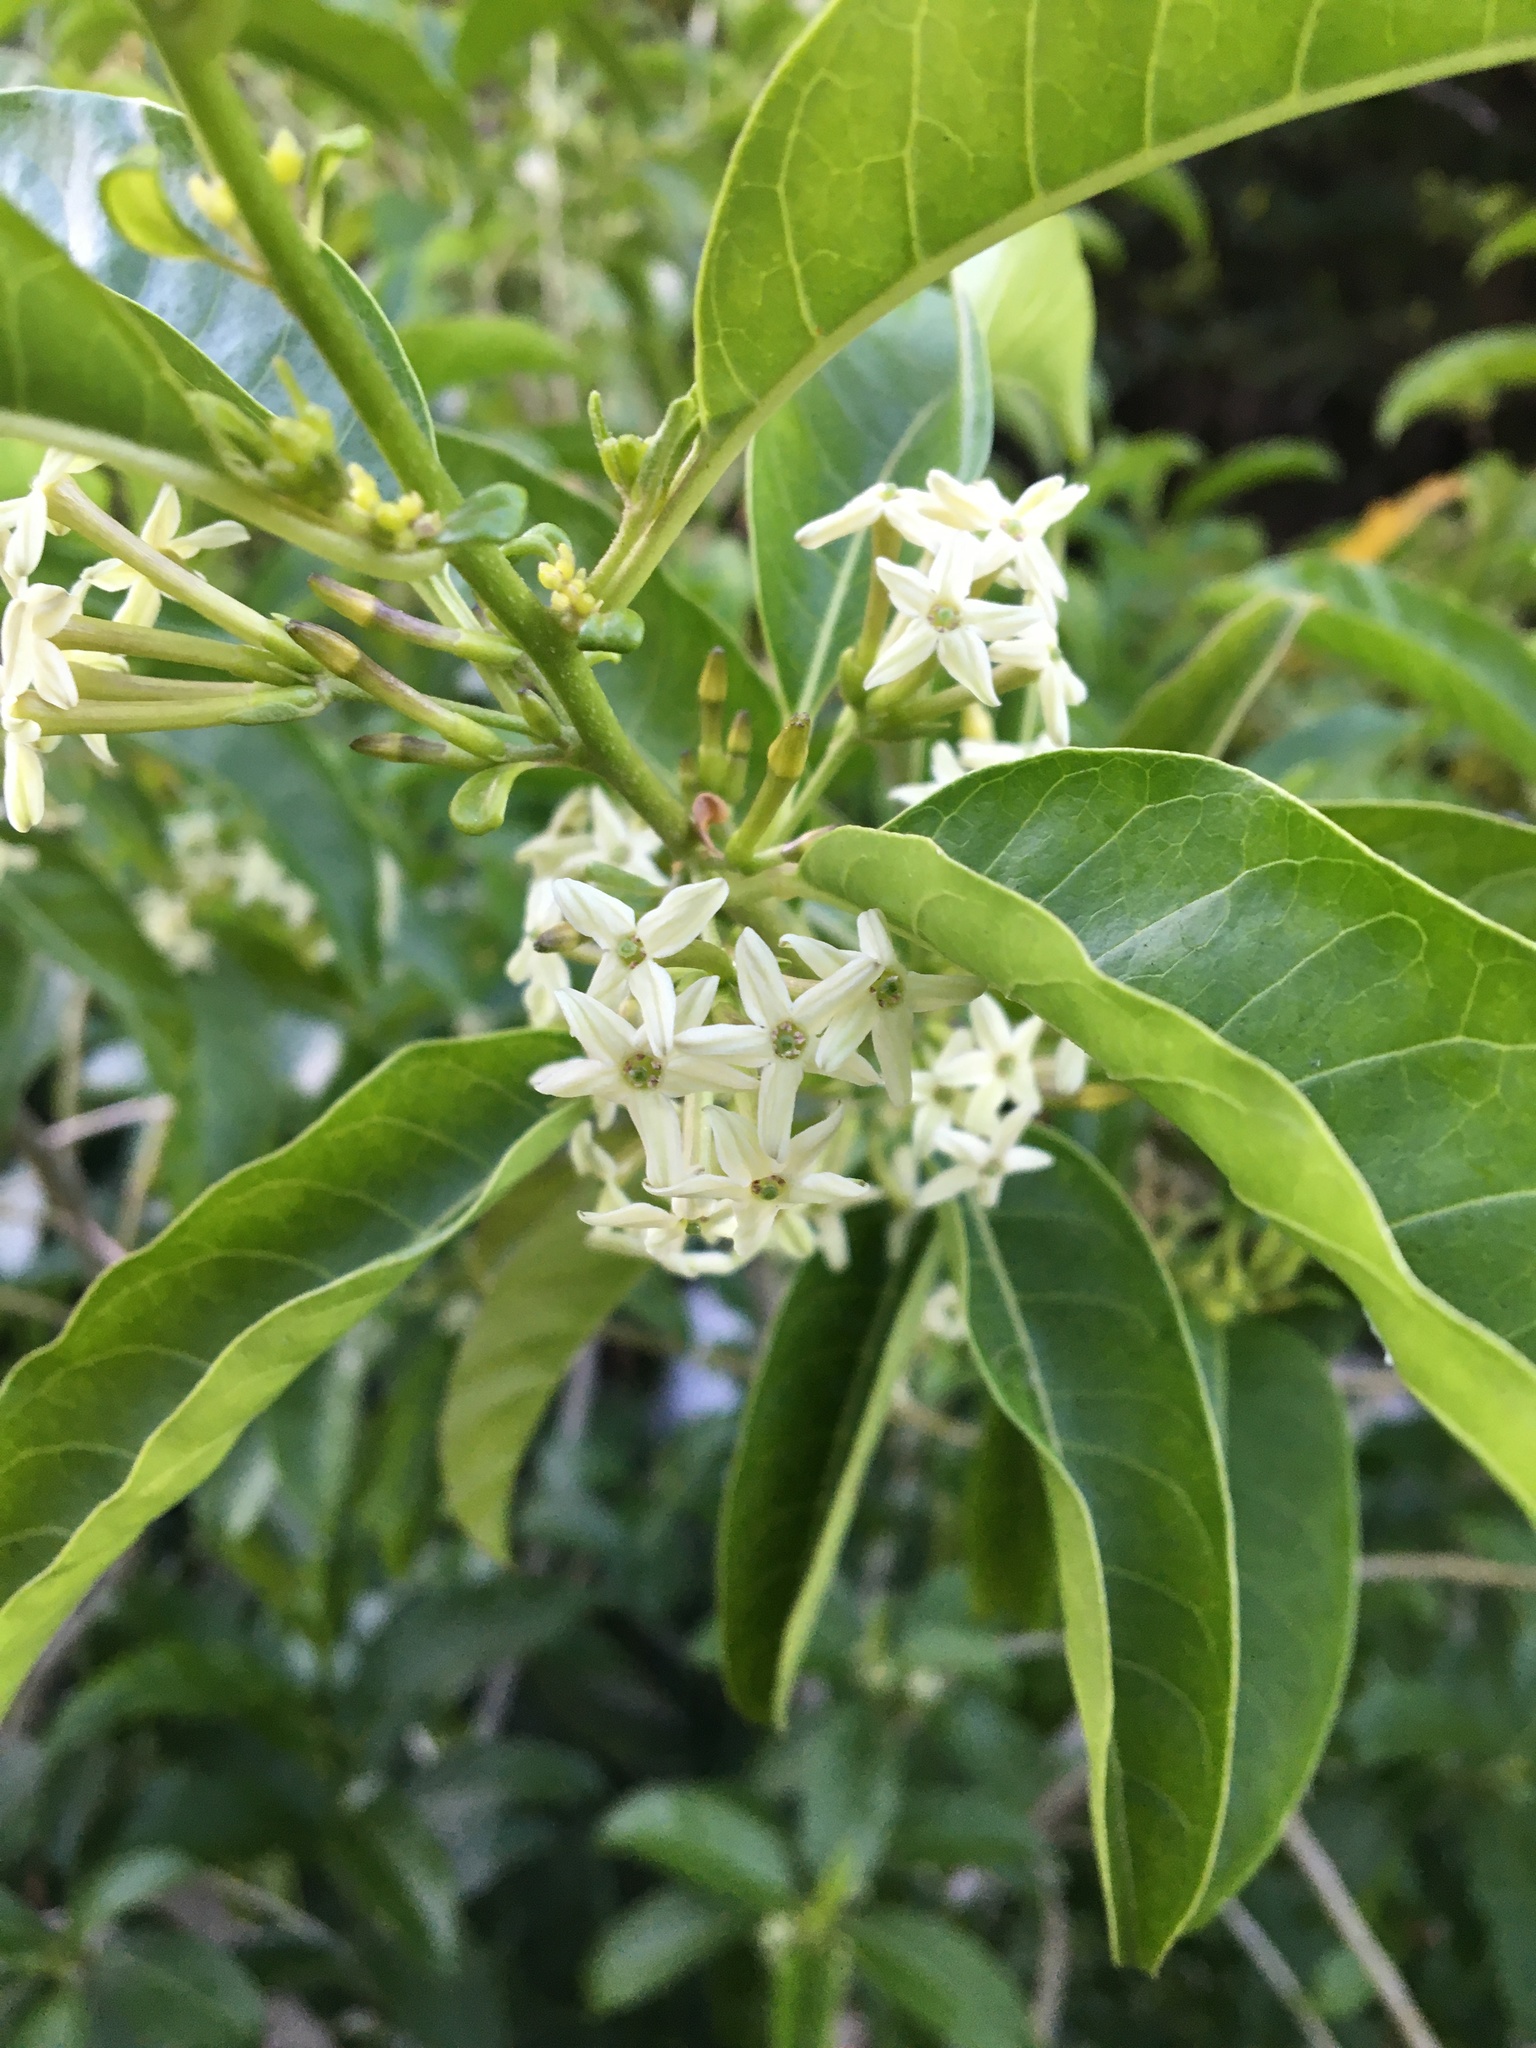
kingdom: Plantae
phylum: Tracheophyta
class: Magnoliopsida
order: Solanales
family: Solanaceae
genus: Cestrum
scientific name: Cestrum laevigatum
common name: Inkberry
